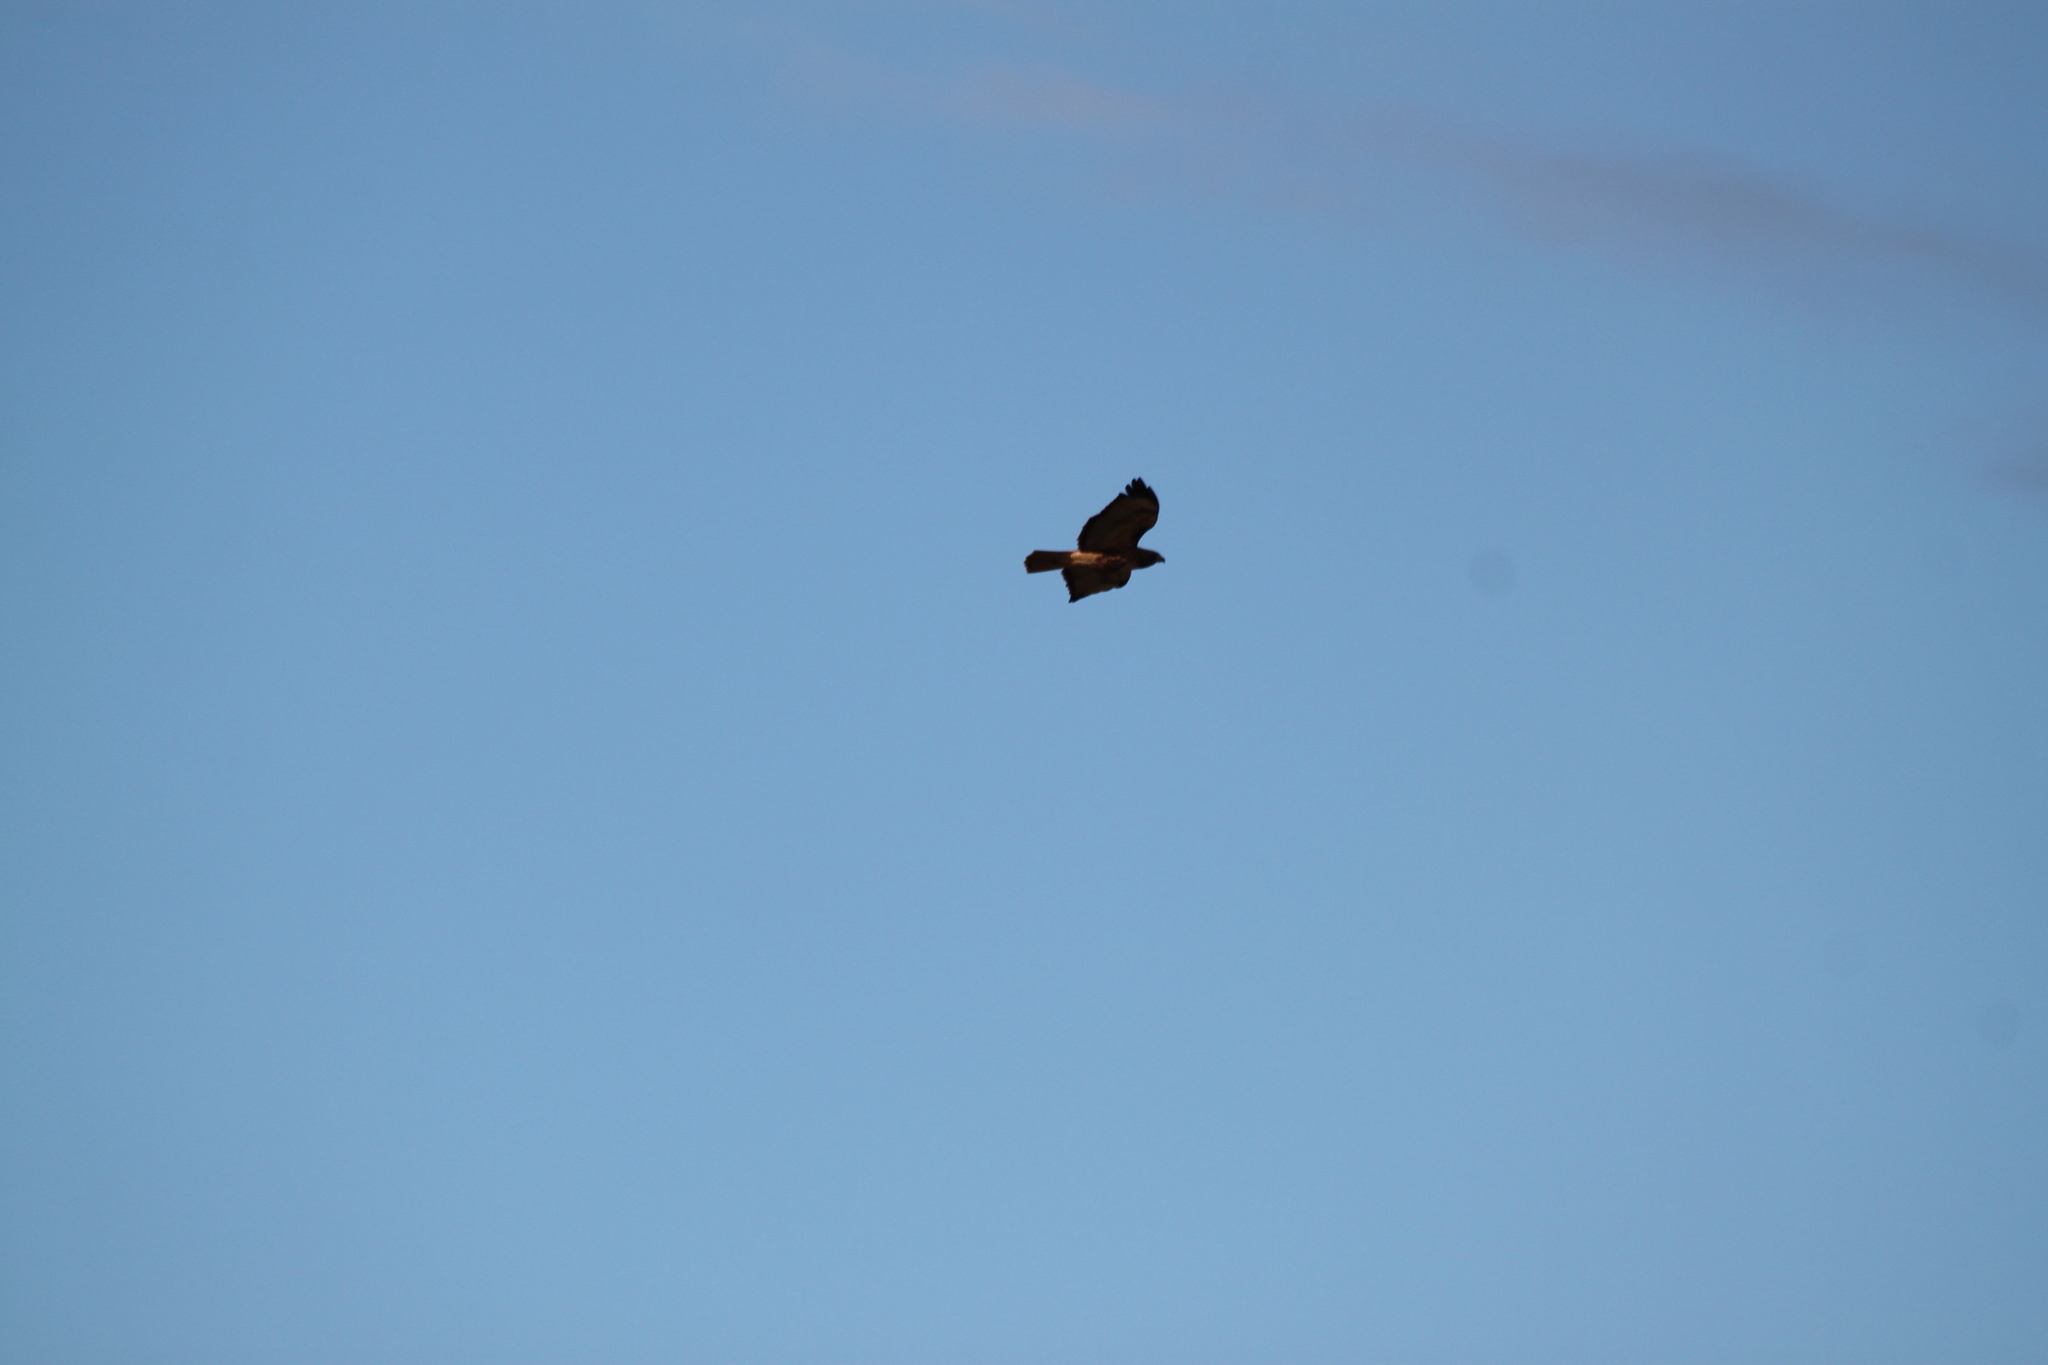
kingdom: Animalia
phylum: Chordata
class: Aves
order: Accipitriformes
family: Accipitridae
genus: Buteo
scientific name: Buteo jamaicensis
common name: Red-tailed hawk
